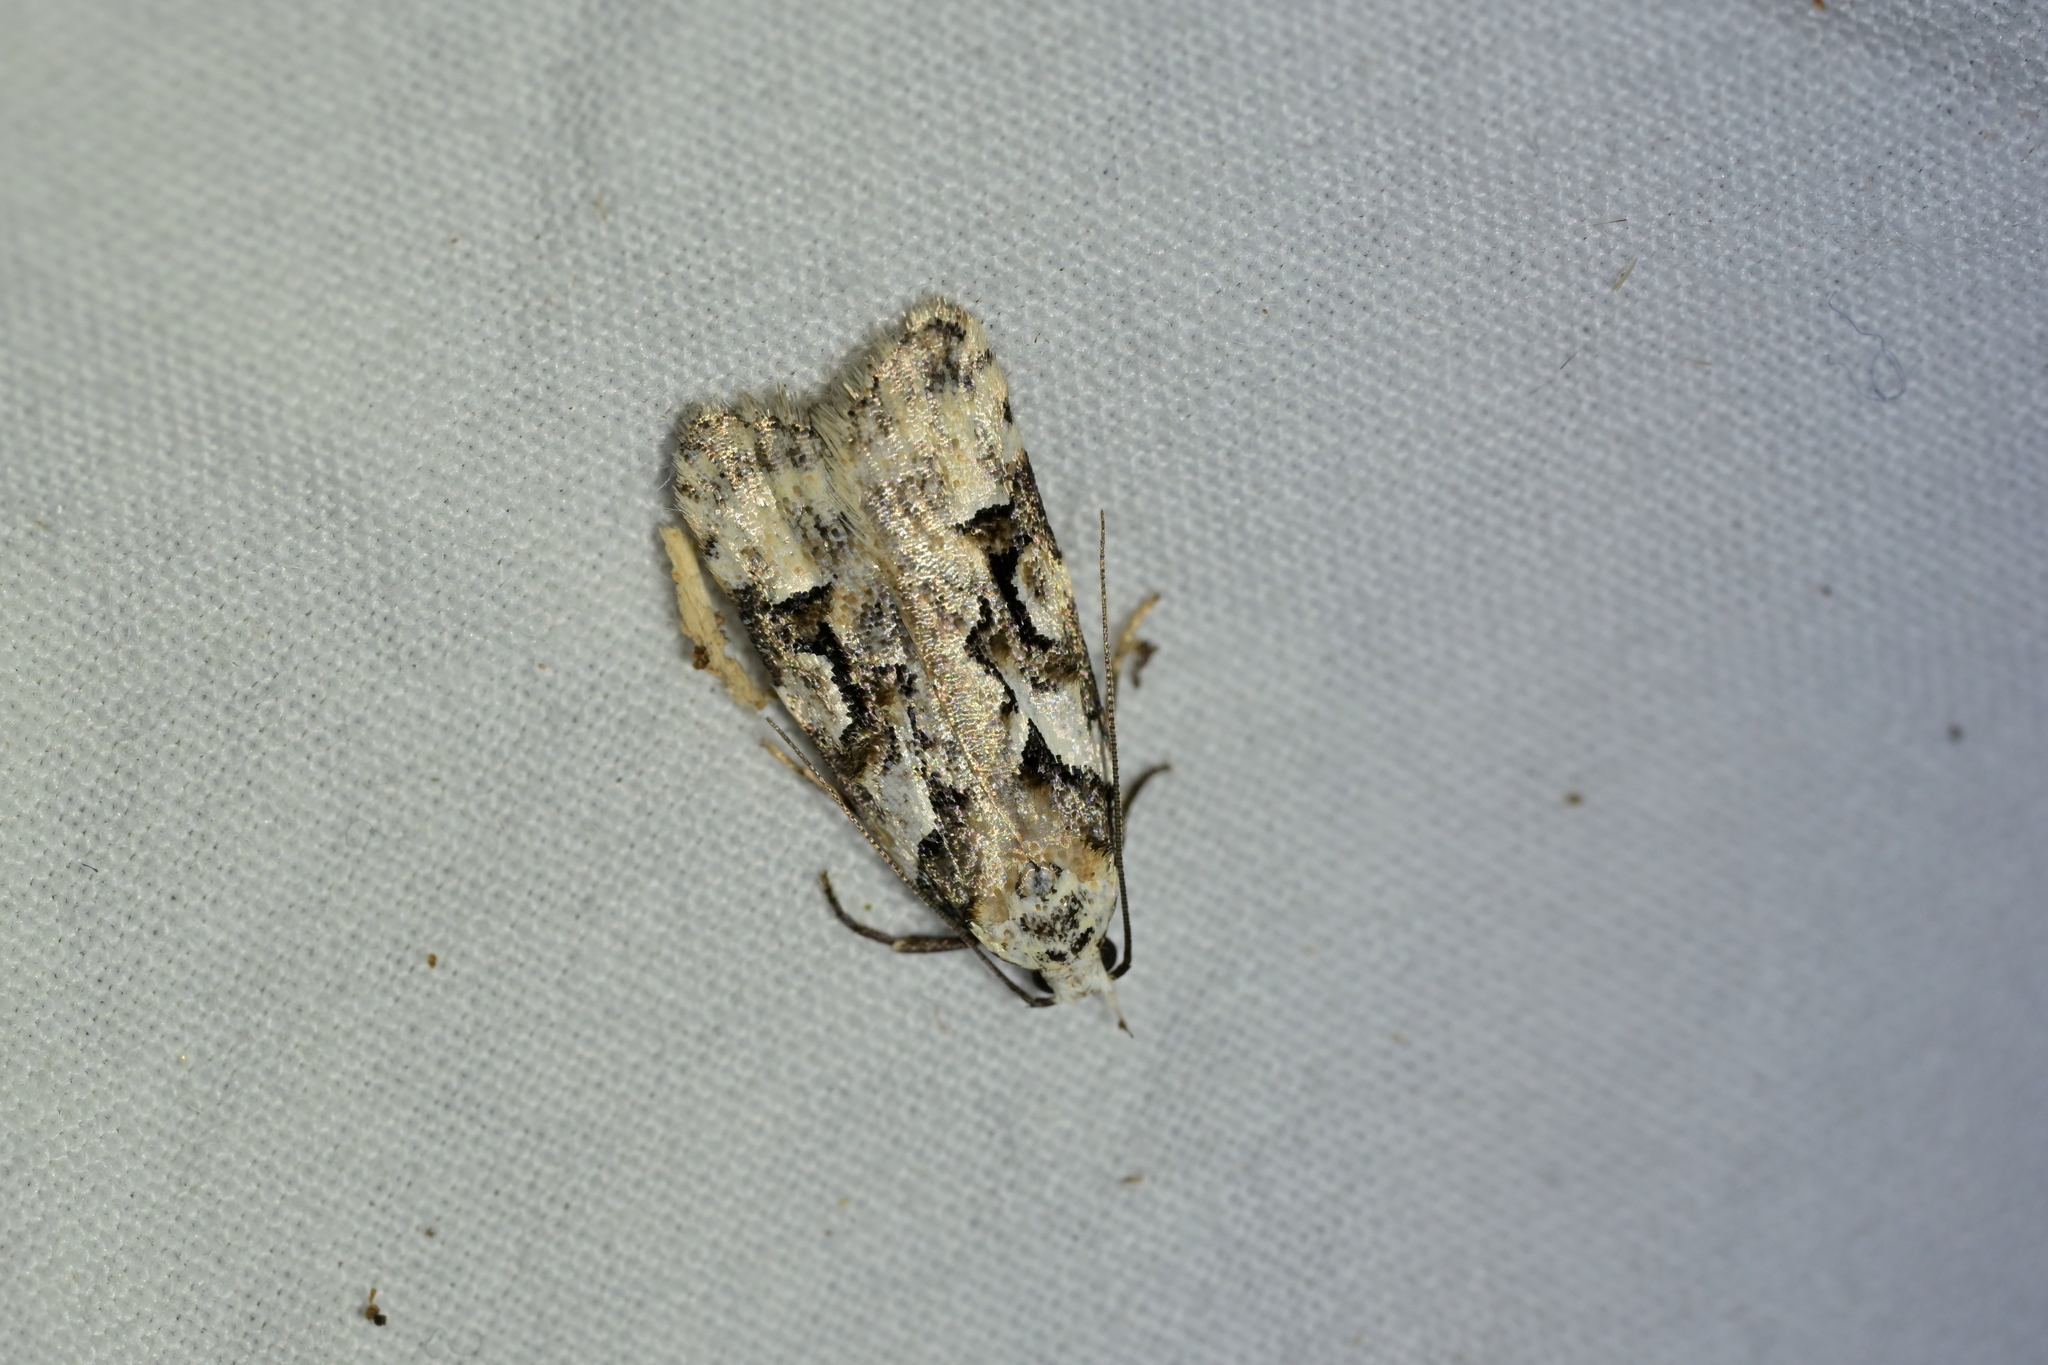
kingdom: Animalia
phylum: Arthropoda
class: Insecta
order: Lepidoptera
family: Oecophoridae
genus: Izatha
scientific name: Izatha epiphanes
